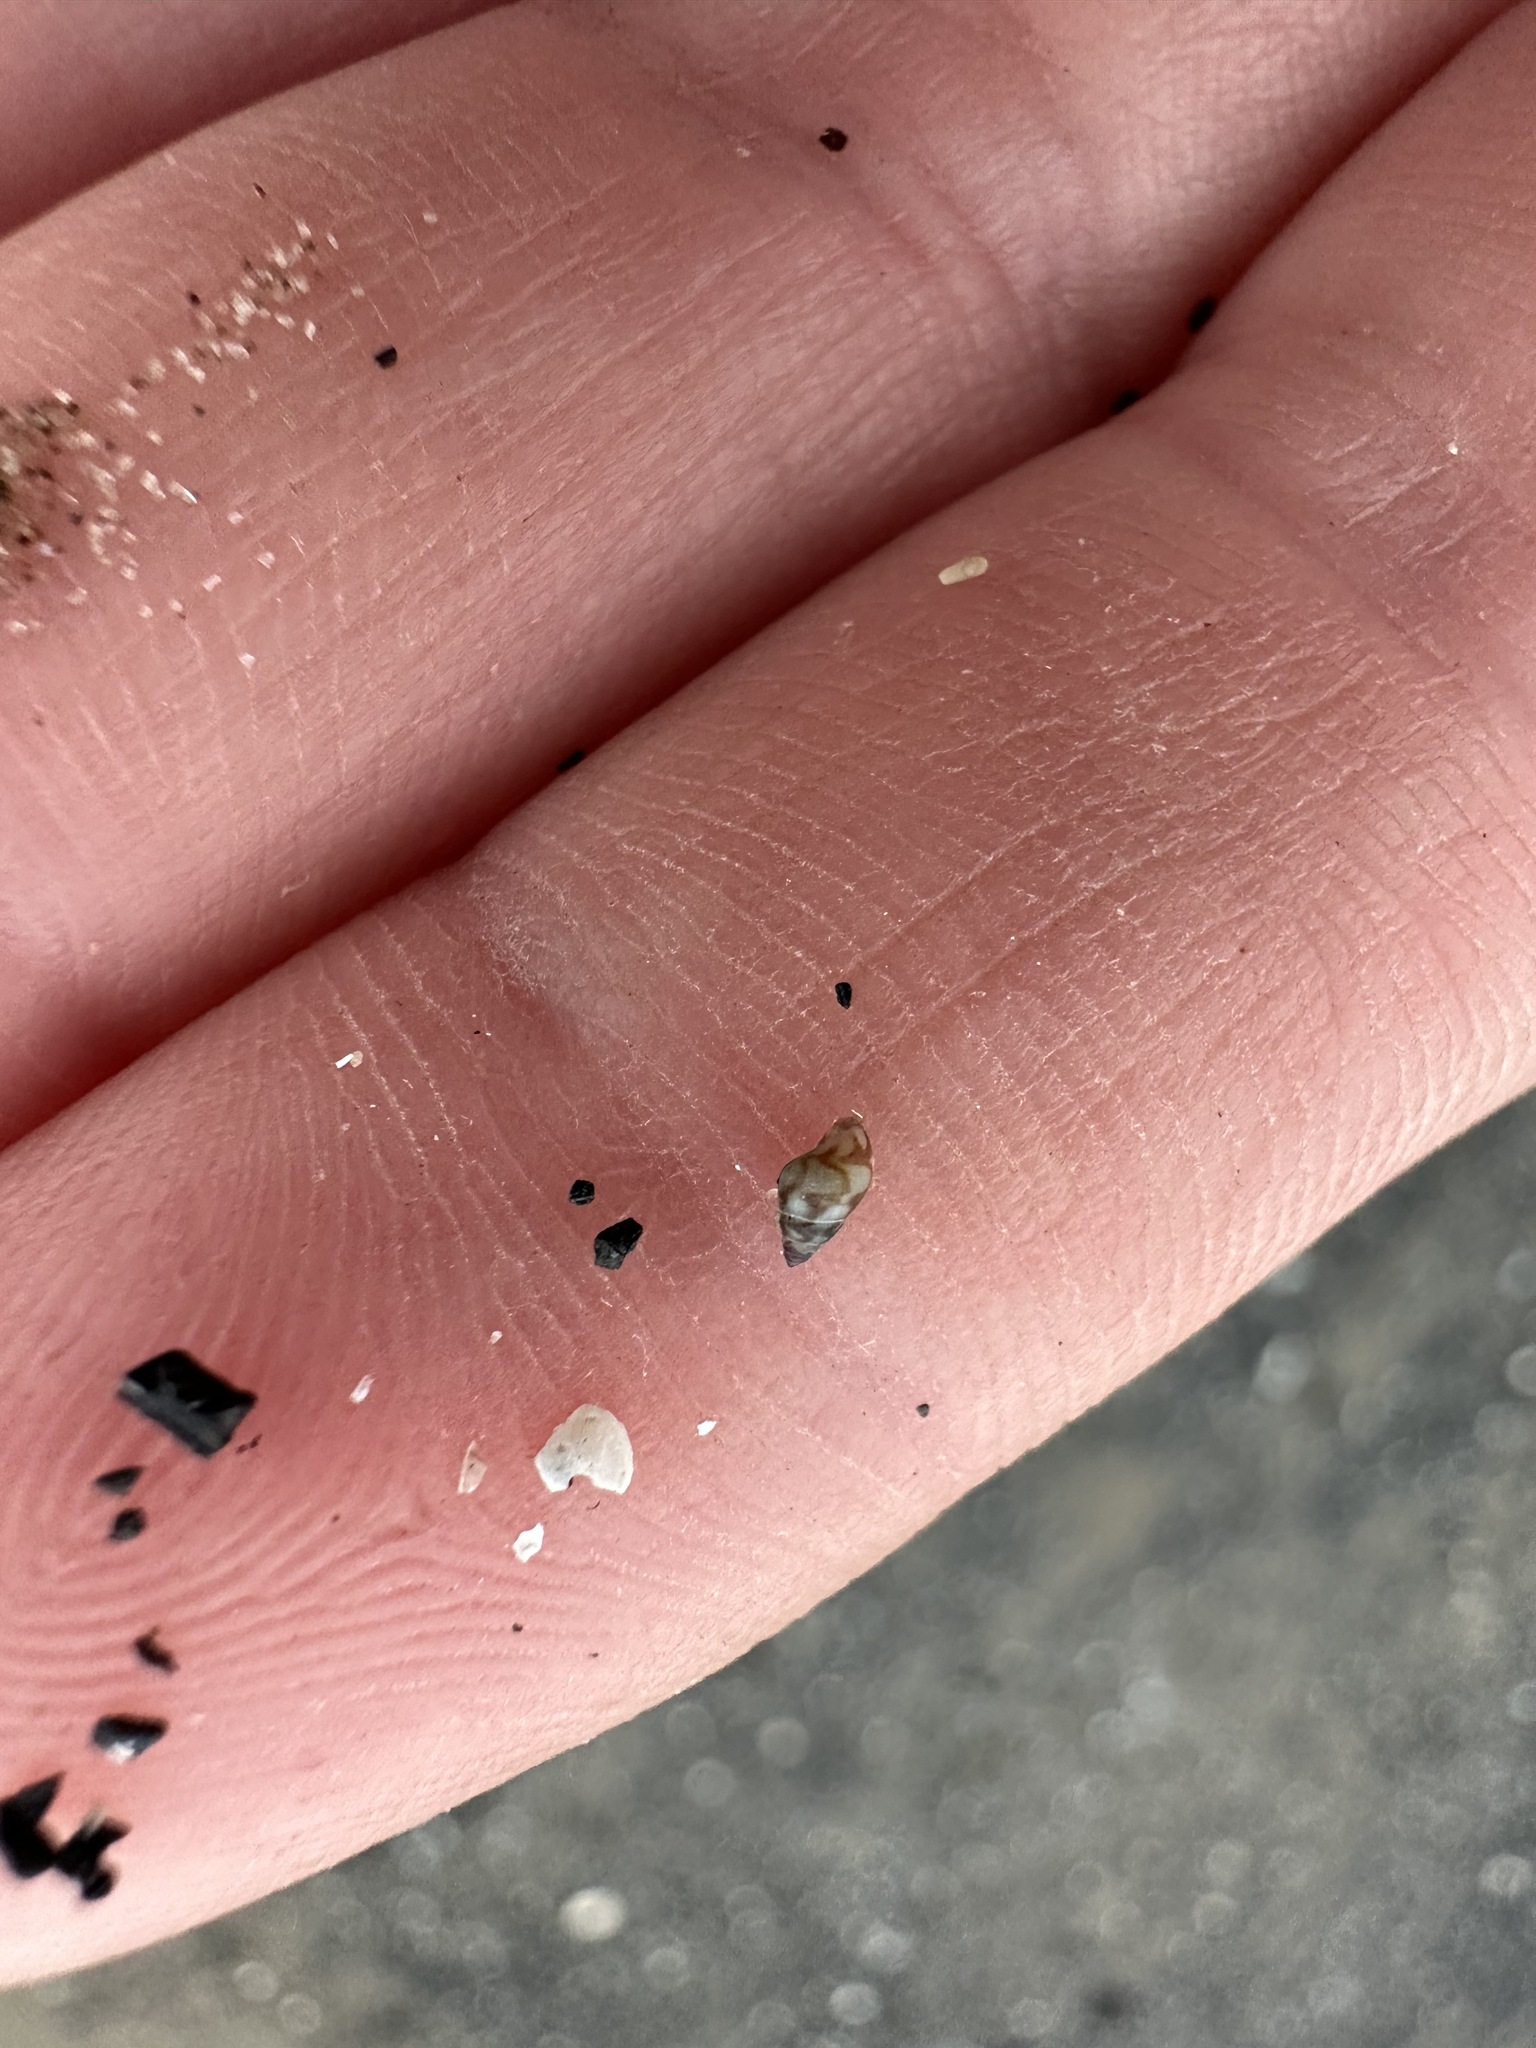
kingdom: Animalia
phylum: Mollusca
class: Gastropoda
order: Neogastropoda
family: Columbellidae
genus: Astyris
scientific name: Astyris lunata
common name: Lunar dovesnail
